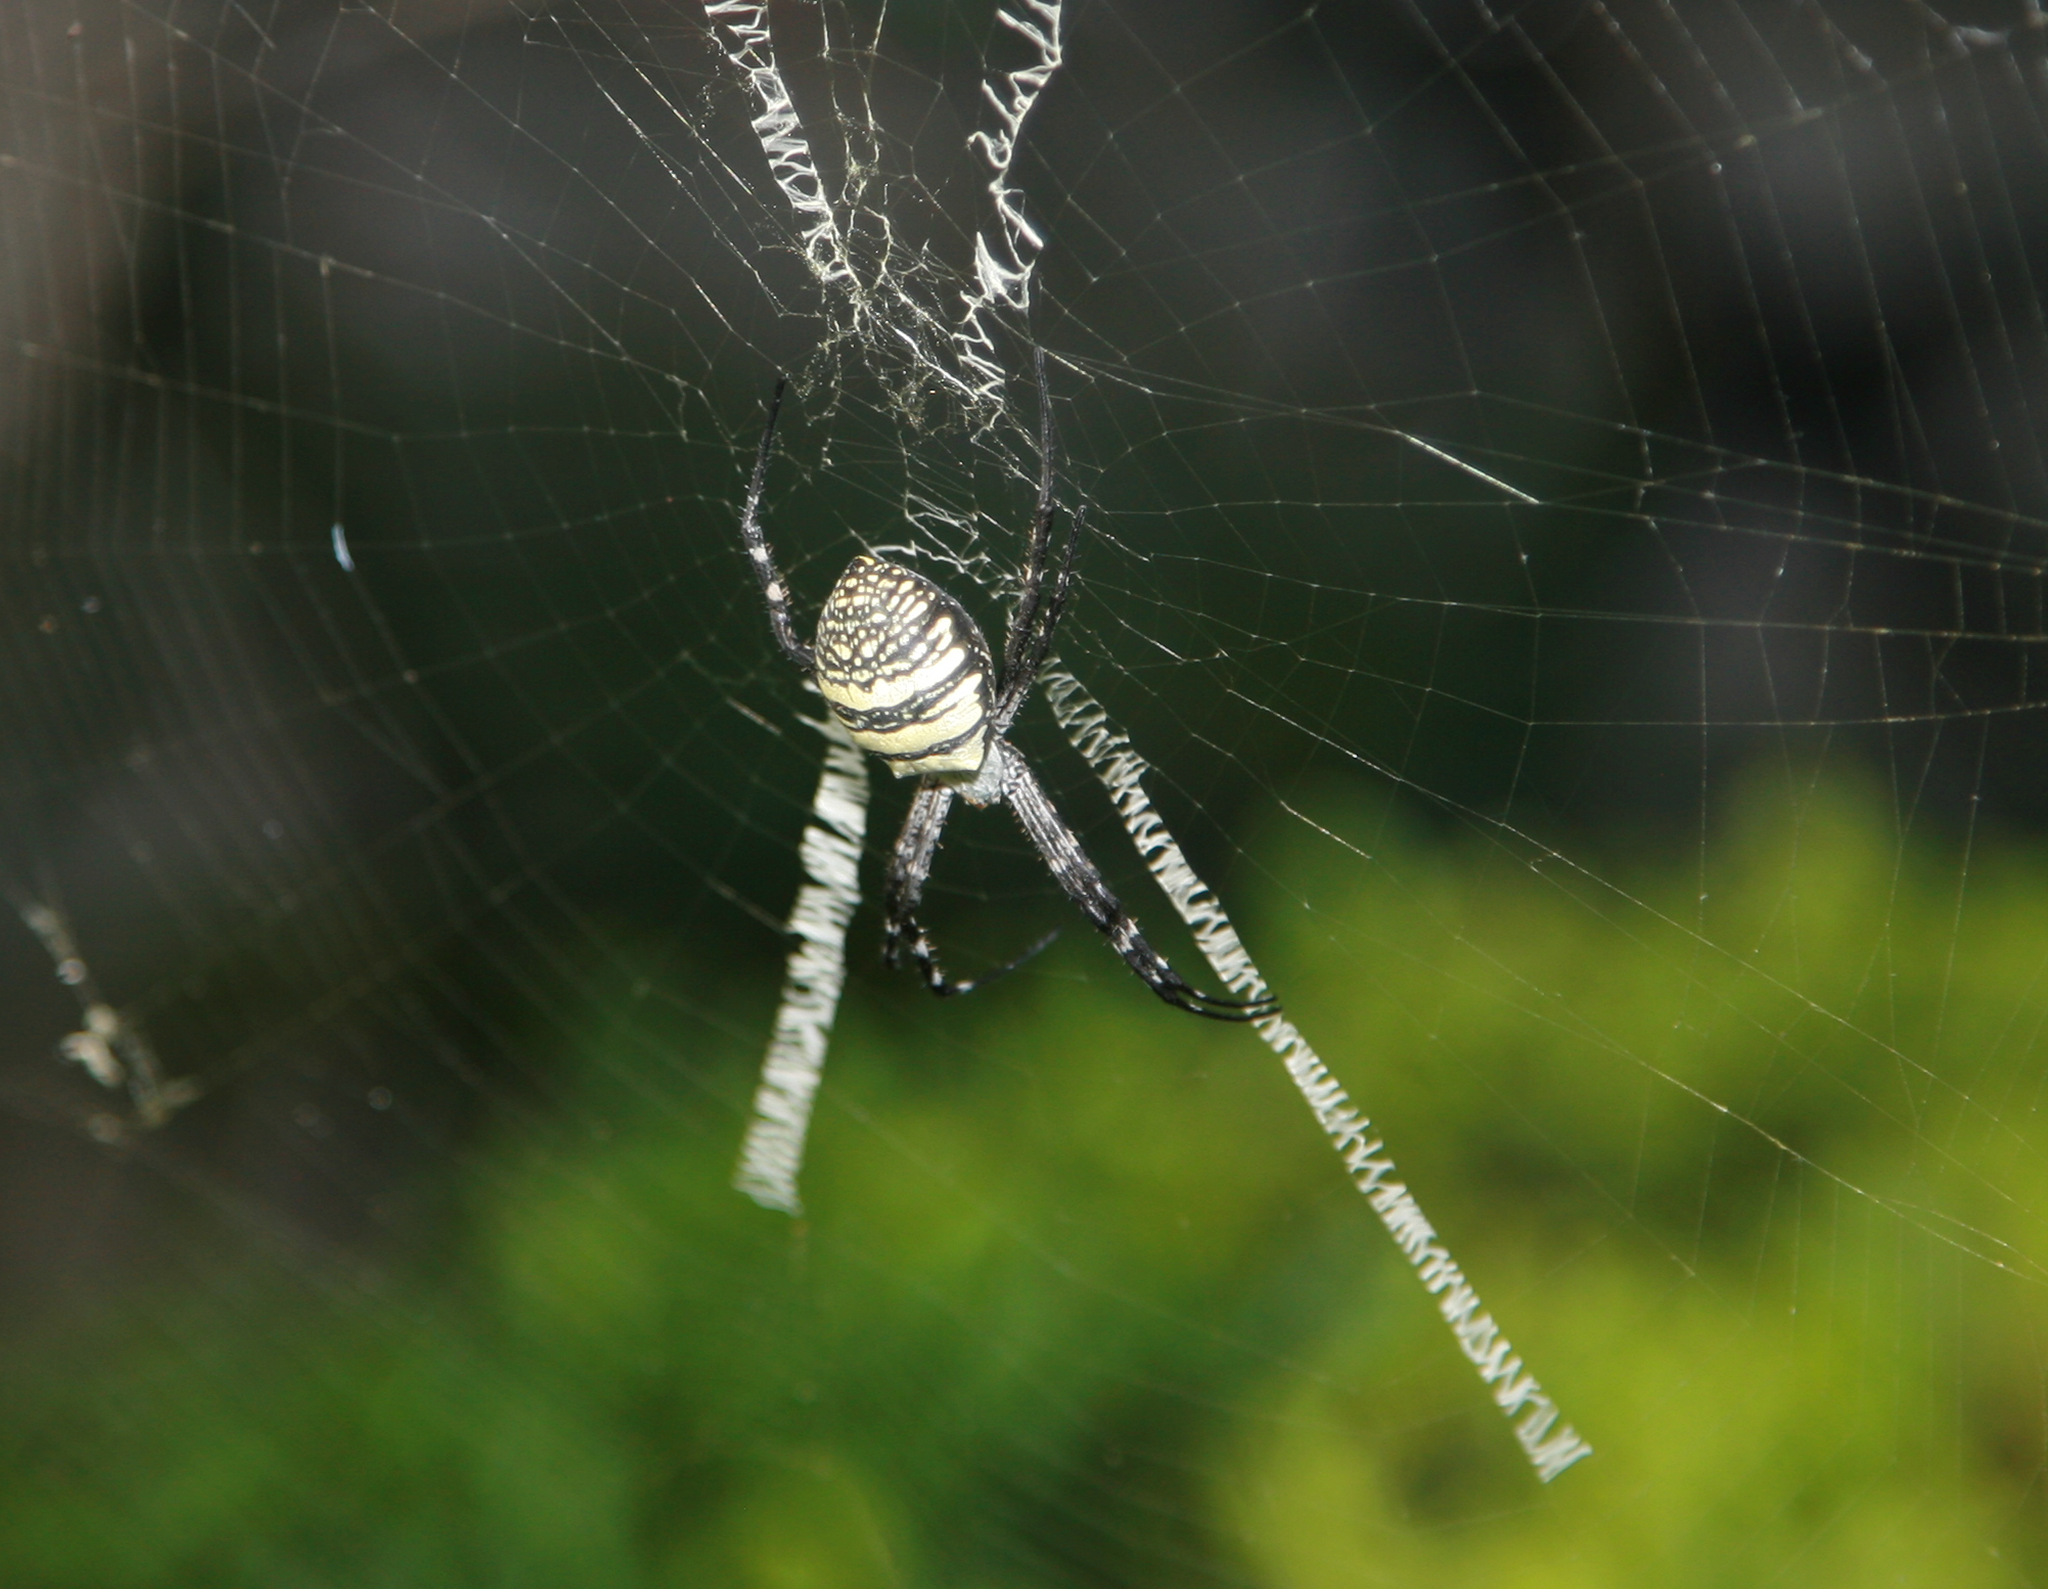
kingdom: Animalia
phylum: Arthropoda
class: Arachnida
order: Araneae
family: Araneidae
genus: Argiope
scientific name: Argiope aemula
